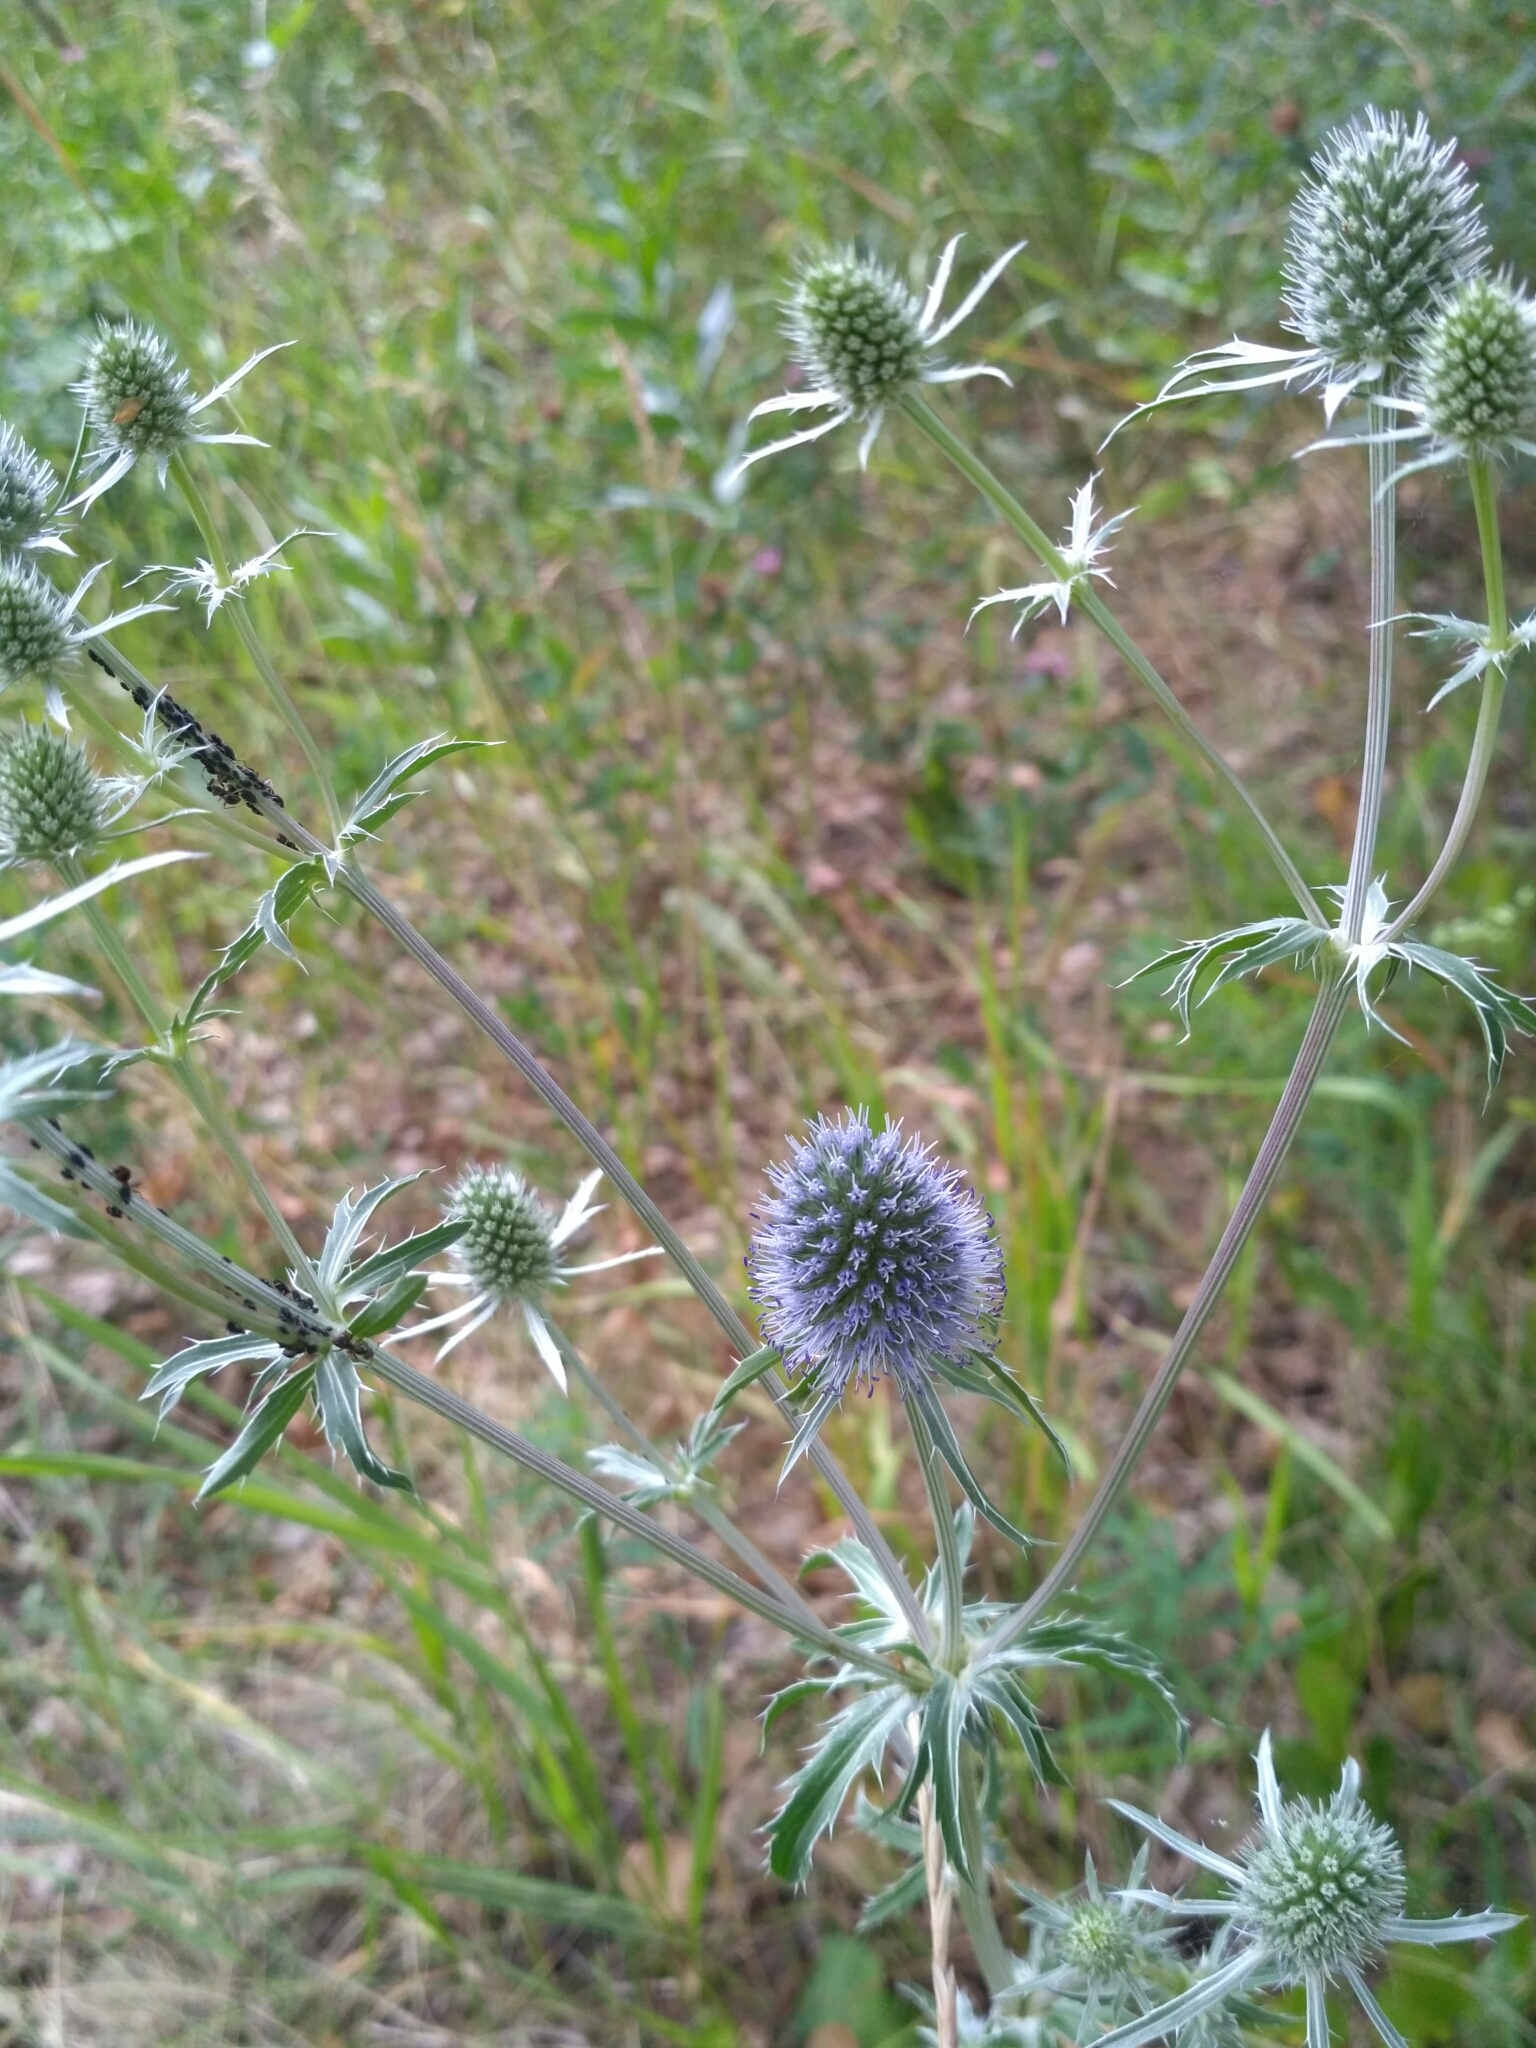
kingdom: Plantae
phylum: Tracheophyta
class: Magnoliopsida
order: Apiales
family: Apiaceae
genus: Eryngium
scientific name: Eryngium planum
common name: Blue eryngo
